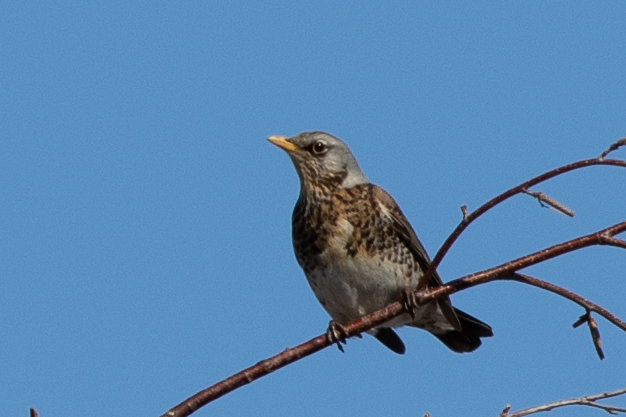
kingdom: Animalia
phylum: Chordata
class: Aves
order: Passeriformes
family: Turdidae
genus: Turdus
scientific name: Turdus pilaris
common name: Fieldfare
